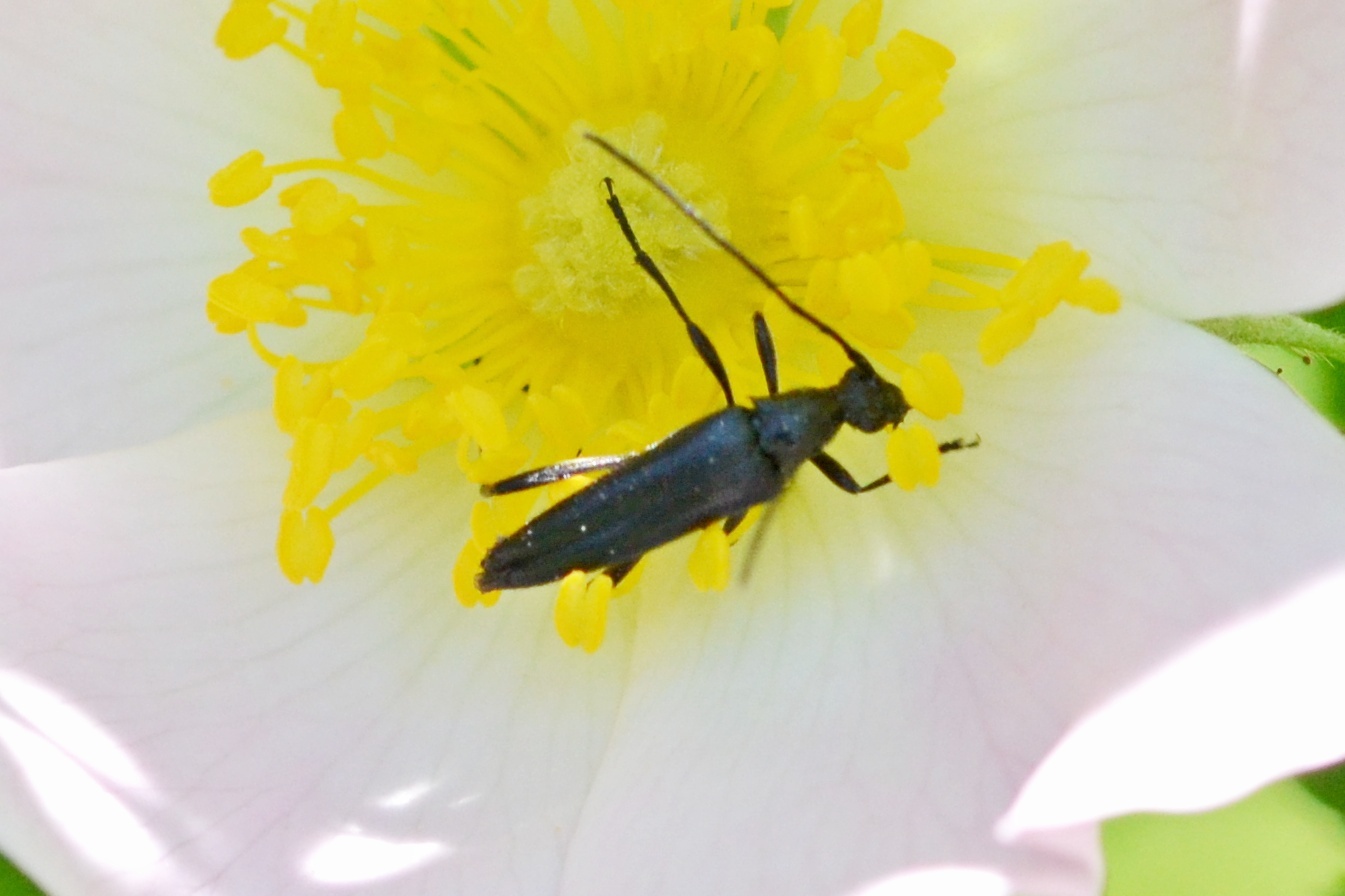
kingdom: Animalia
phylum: Arthropoda
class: Insecta
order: Coleoptera
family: Cerambycidae
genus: Stenurella
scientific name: Stenurella nigra
